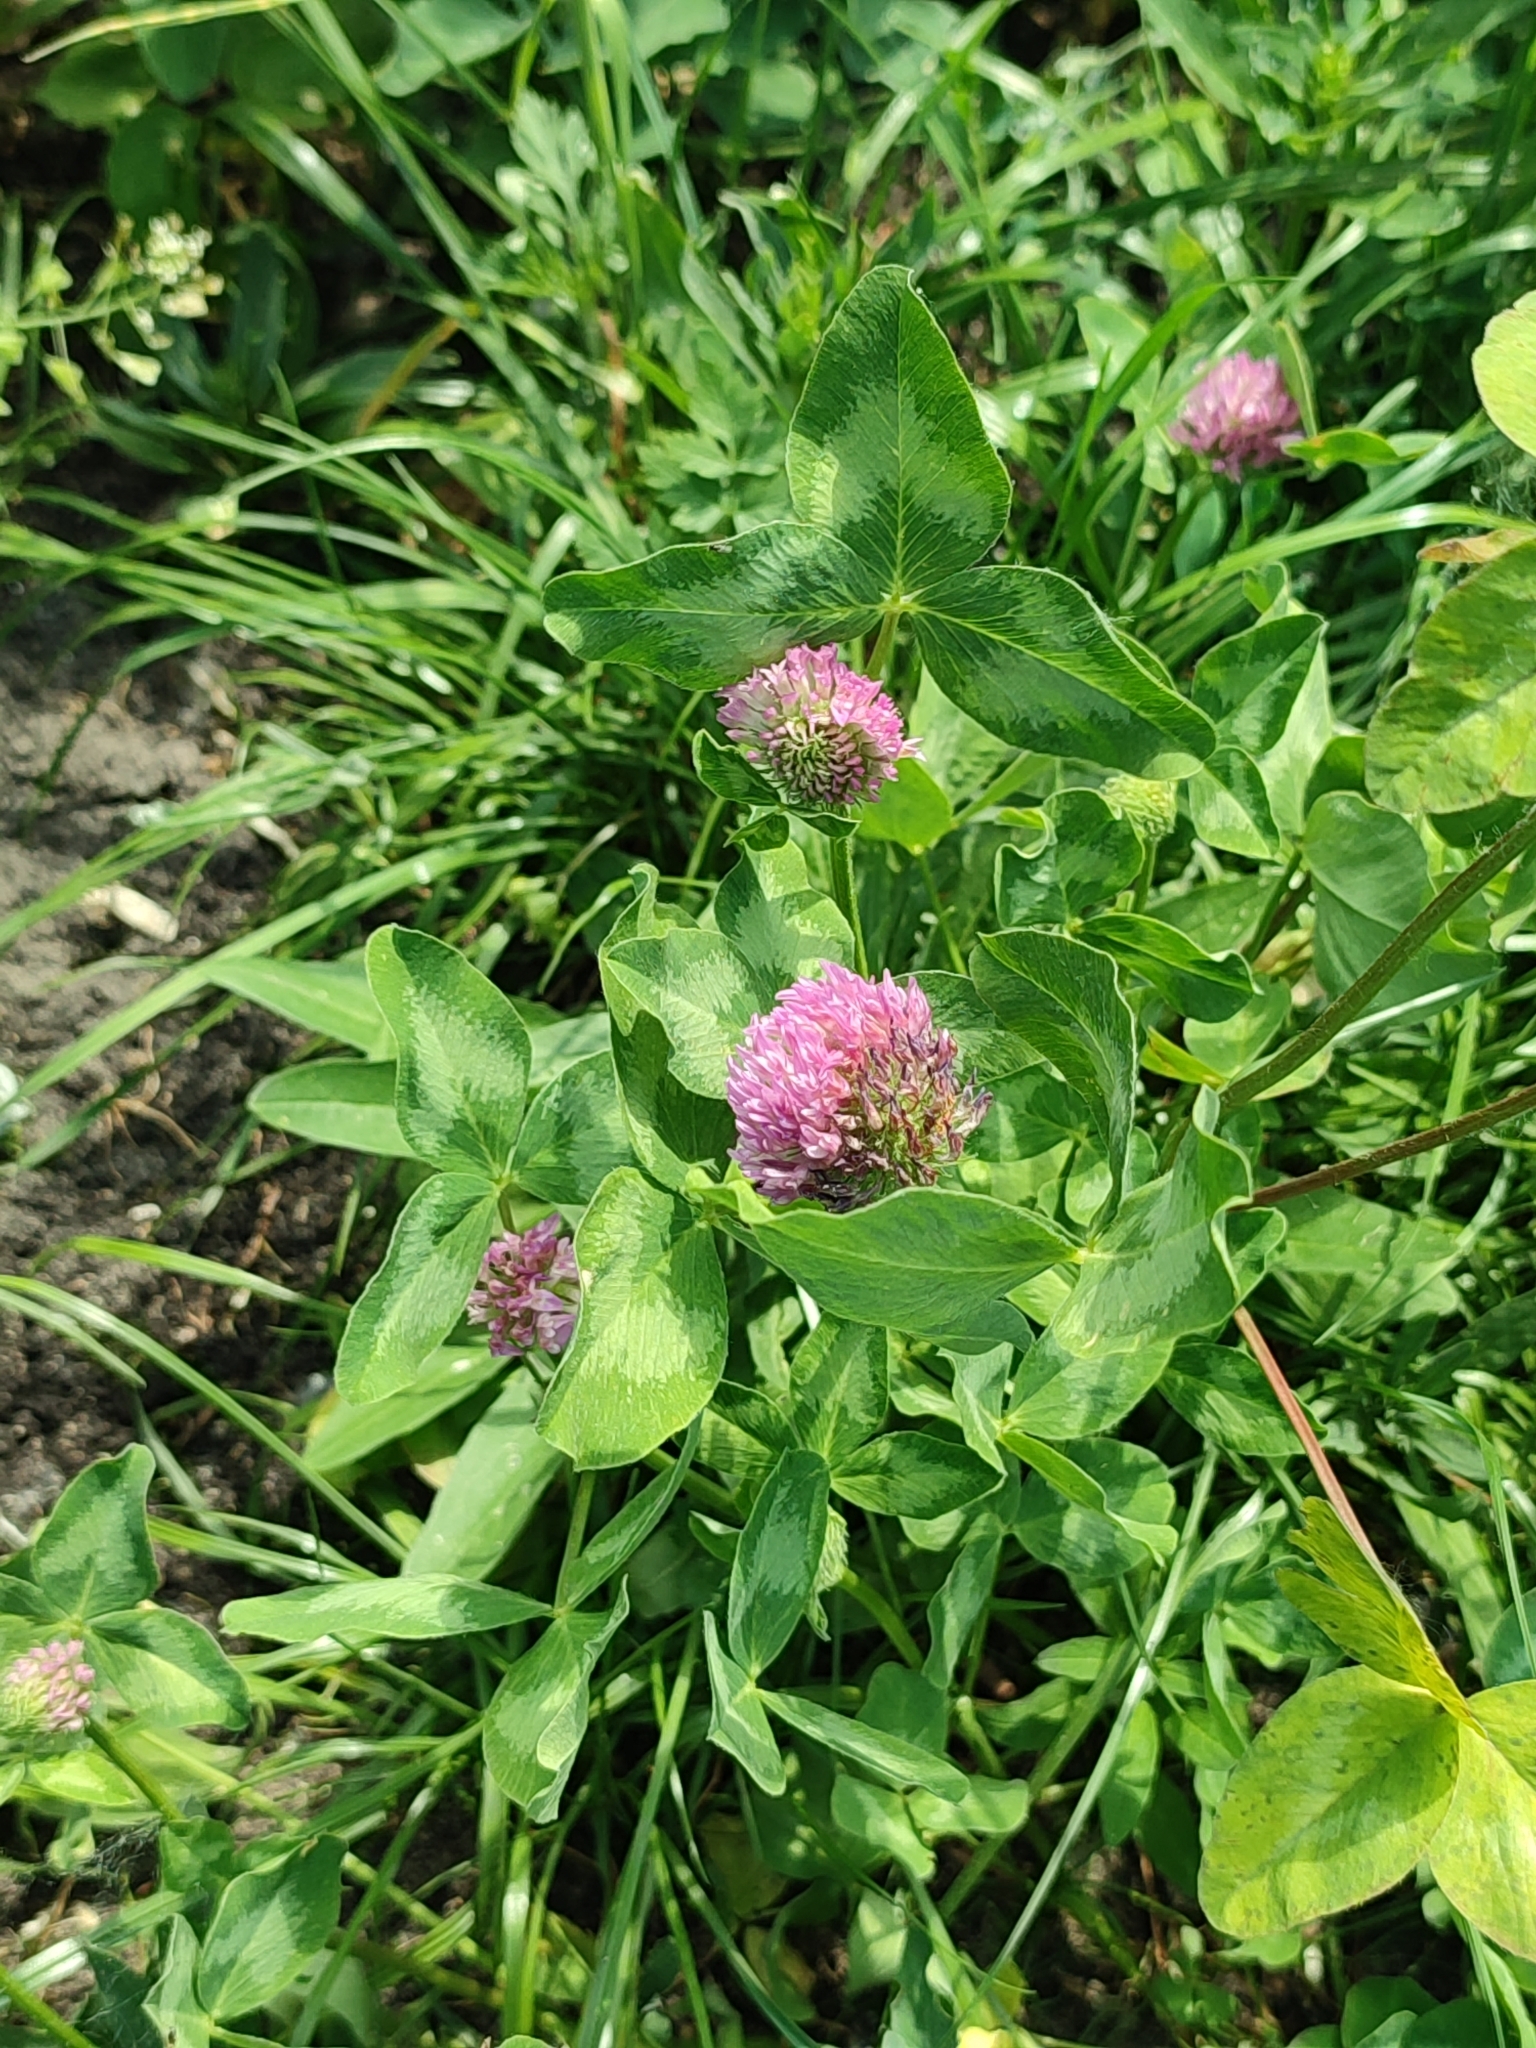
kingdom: Plantae
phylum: Tracheophyta
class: Magnoliopsida
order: Fabales
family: Fabaceae
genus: Trifolium
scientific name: Trifolium pratense
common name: Red clover
